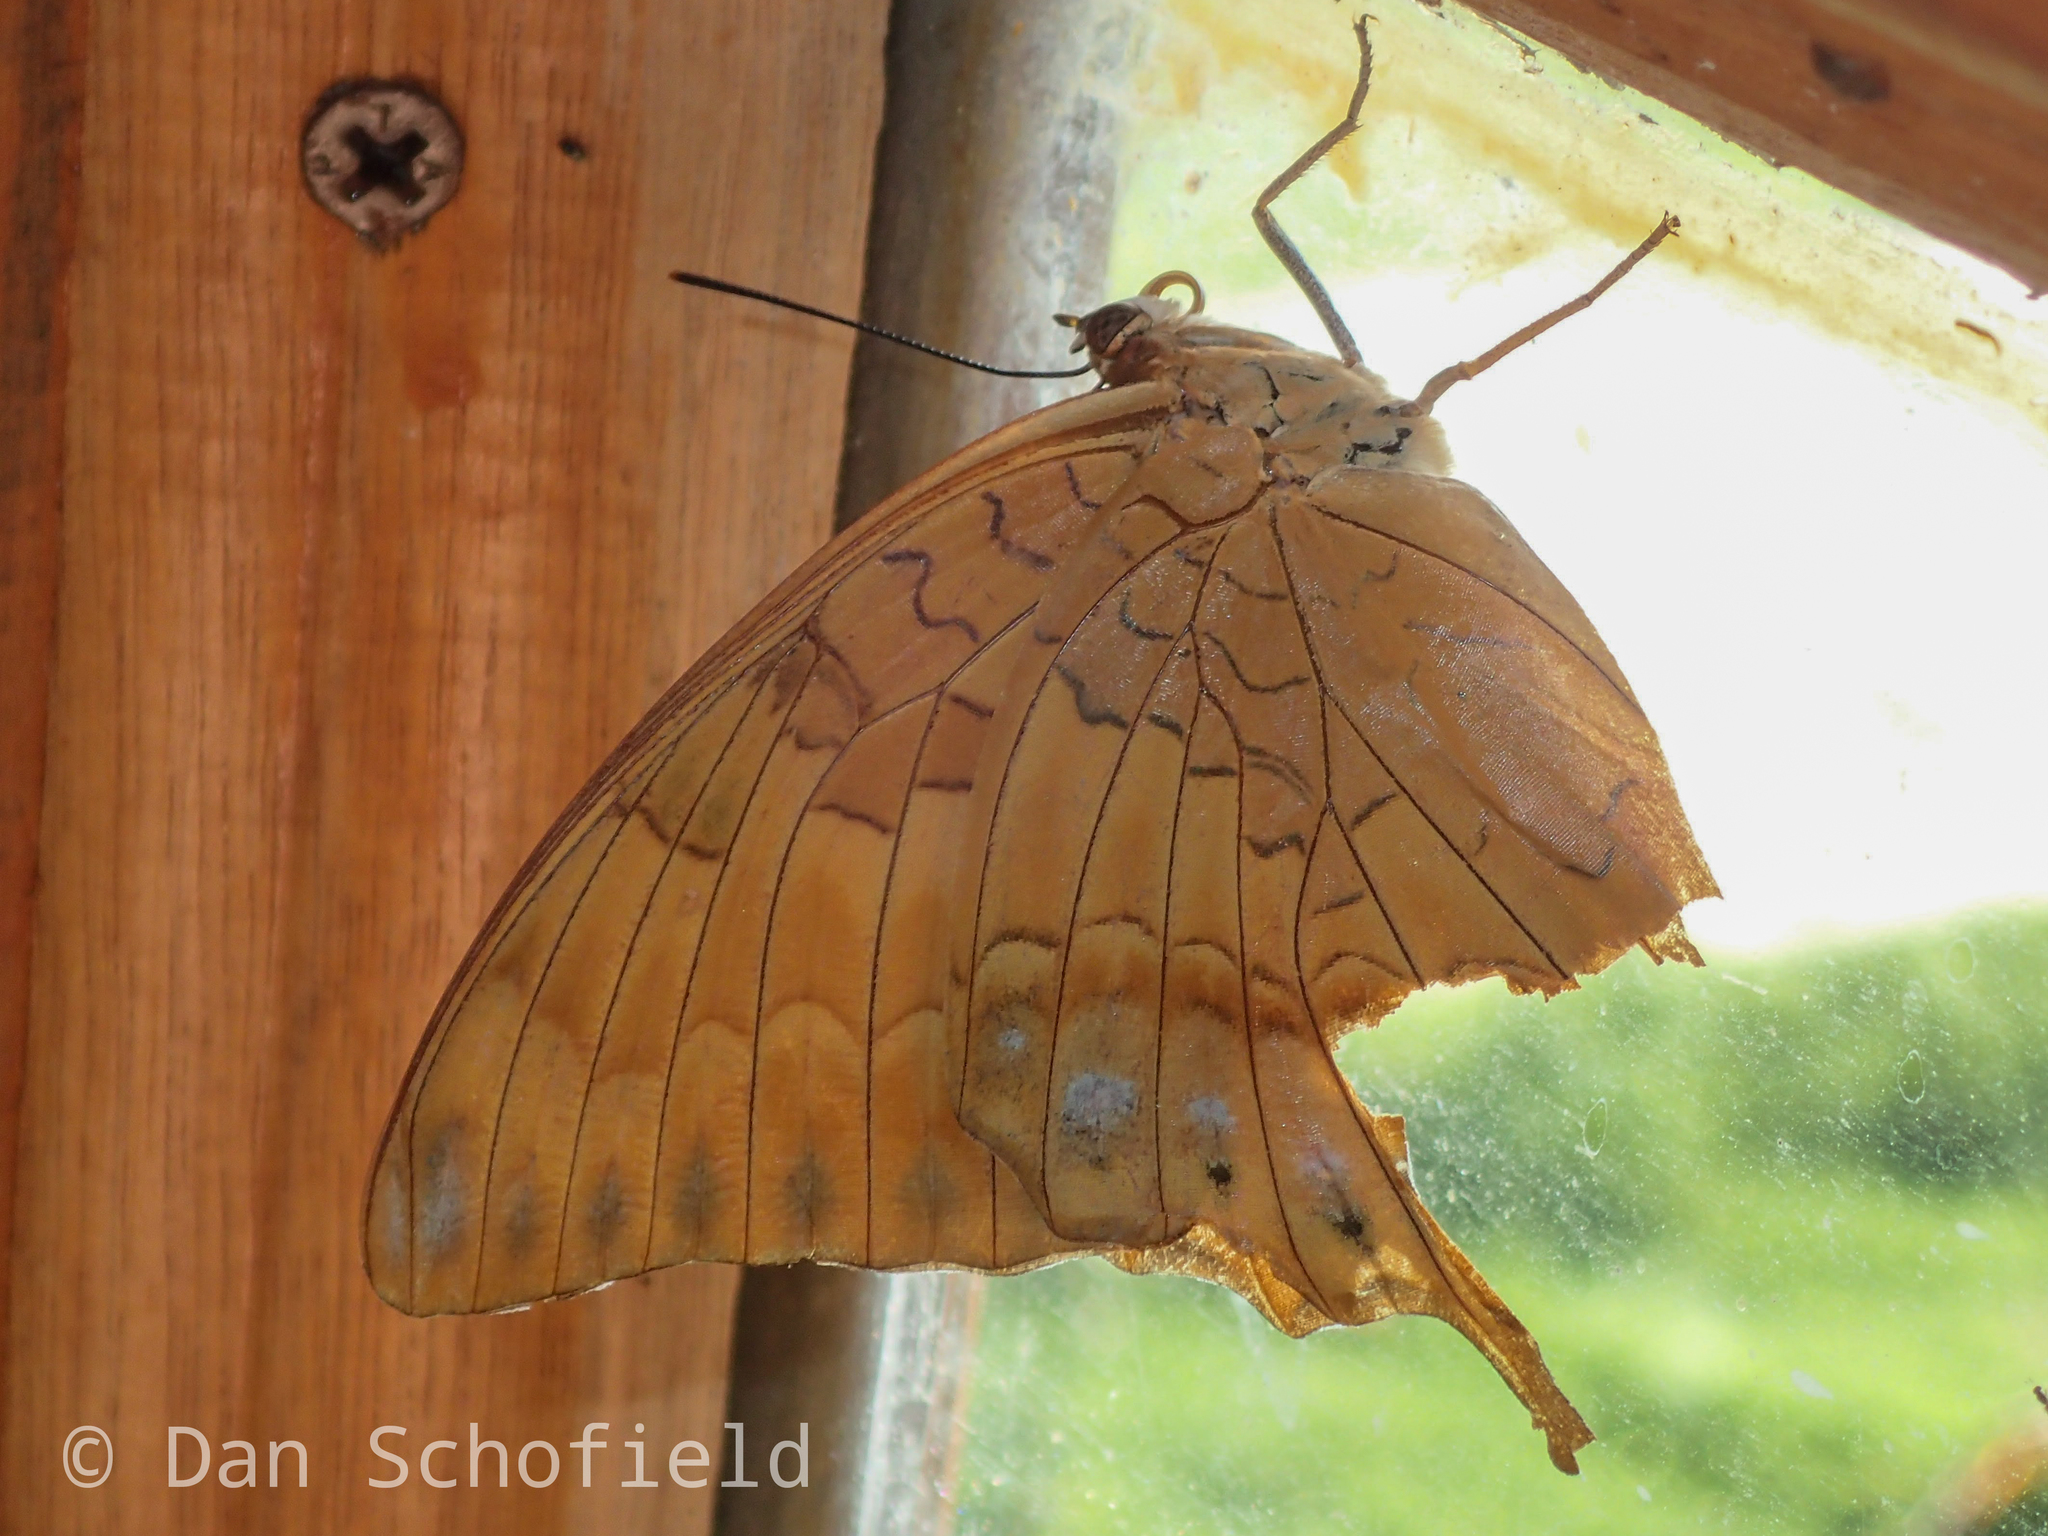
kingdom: Animalia
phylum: Arthropoda
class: Insecta
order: Lepidoptera
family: Nymphalidae
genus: Charaxes
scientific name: Charaxes affinis
